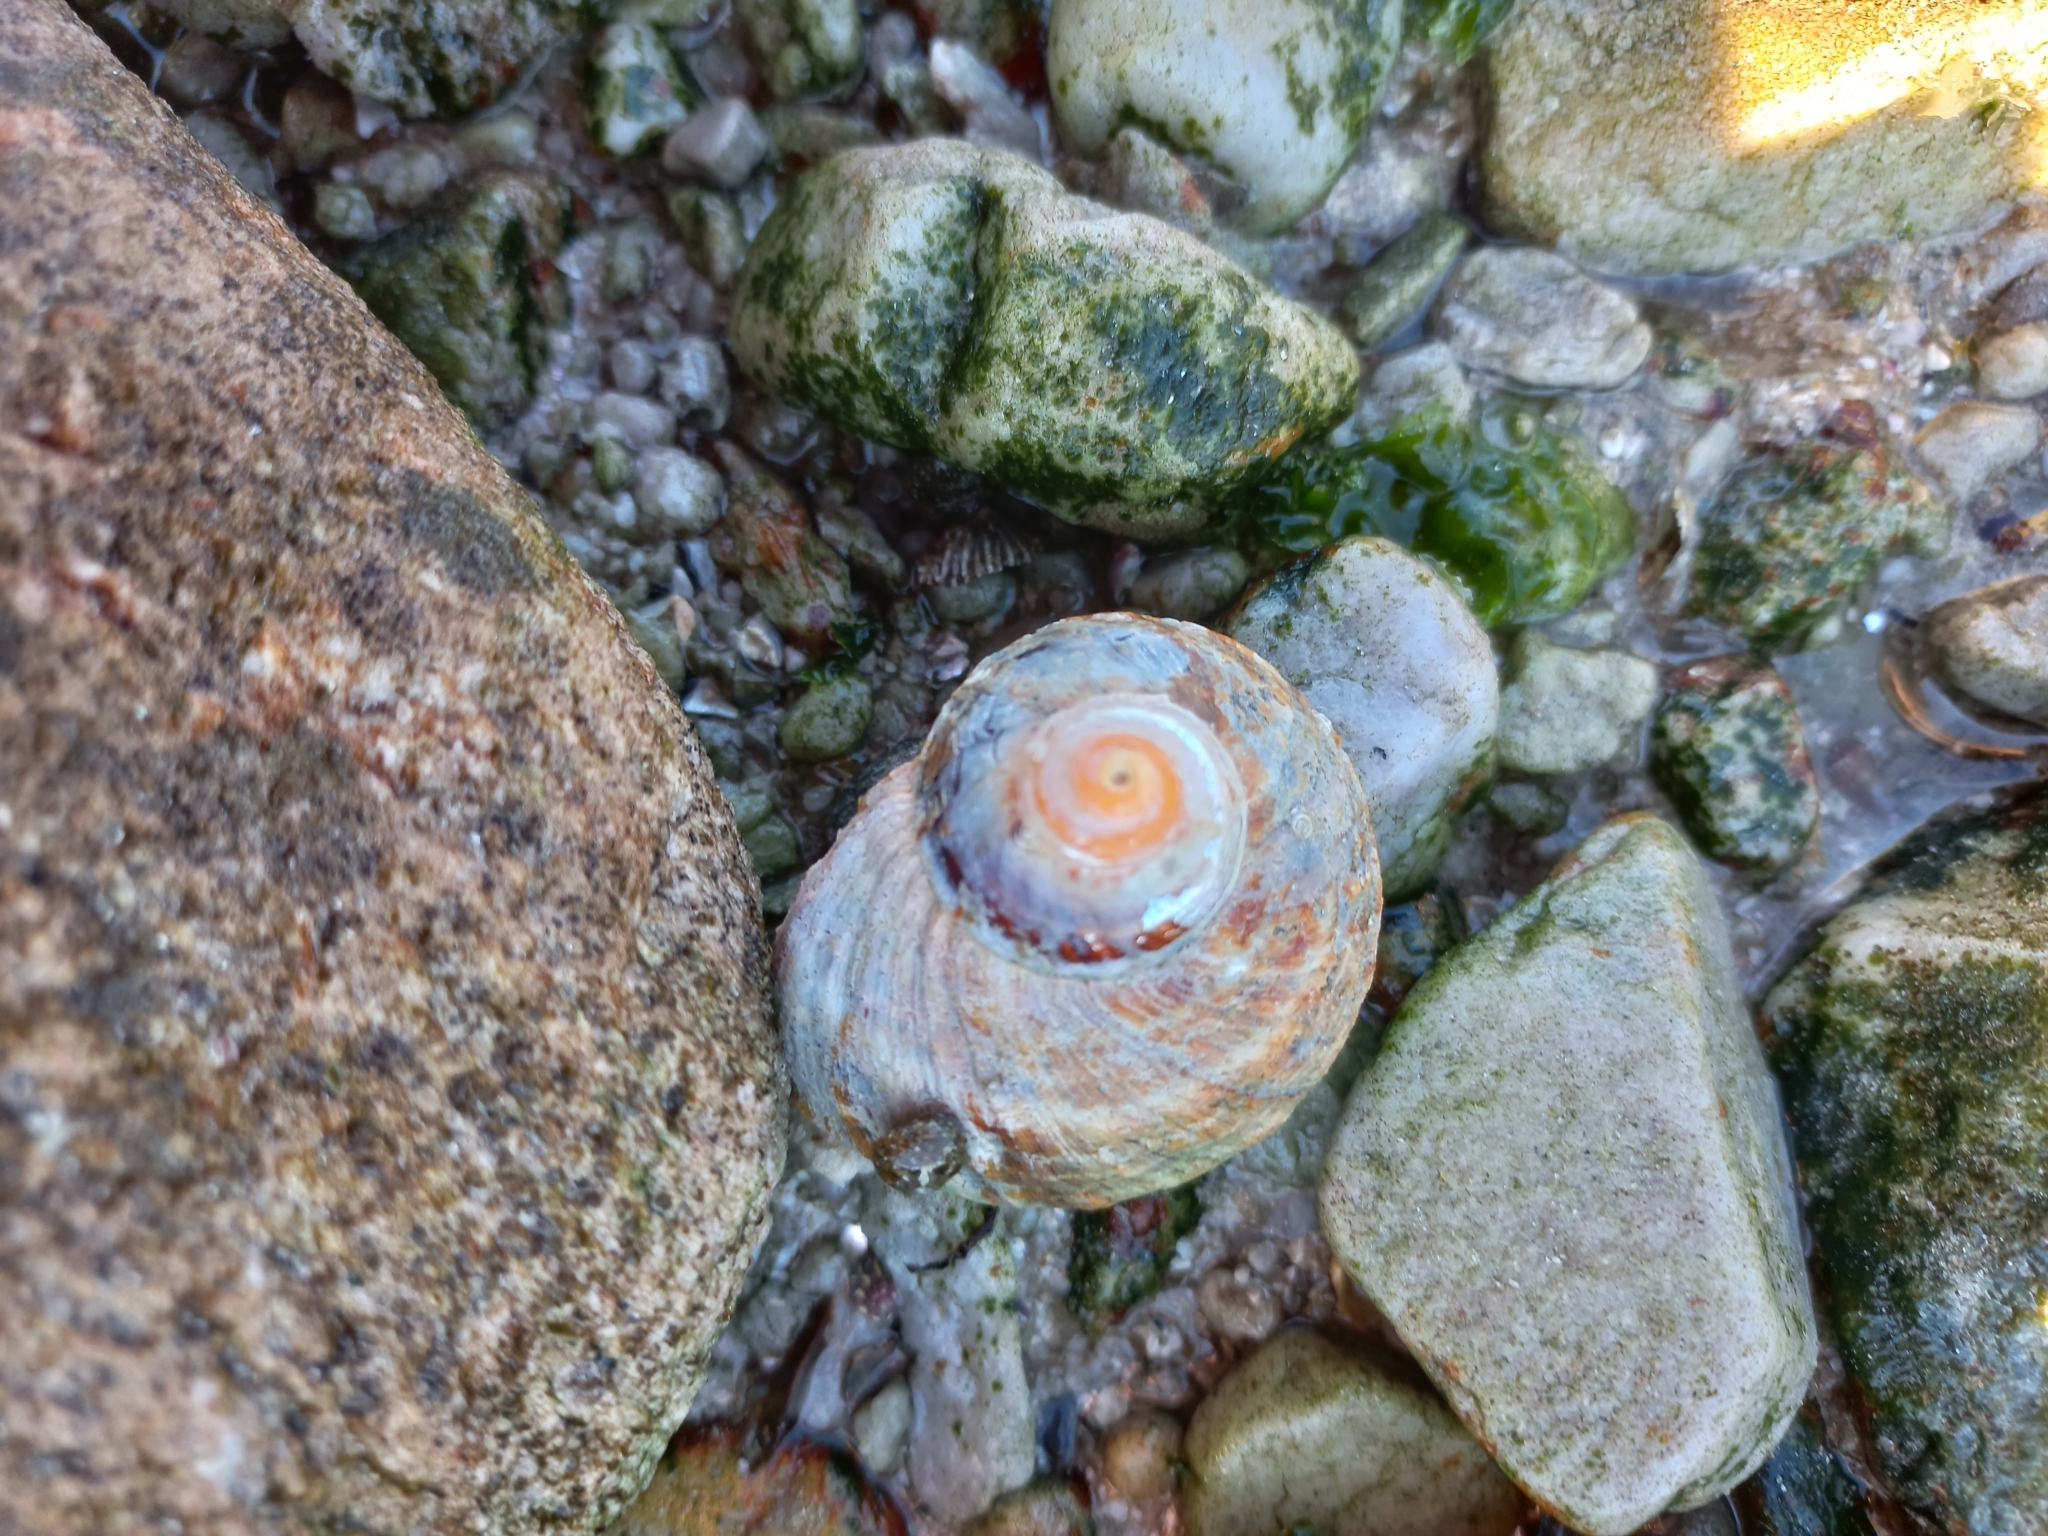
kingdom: Animalia
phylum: Mollusca
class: Gastropoda
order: Trochida
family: Turbinidae
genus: Turbo
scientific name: Turbo sarmaticus
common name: South african turban
